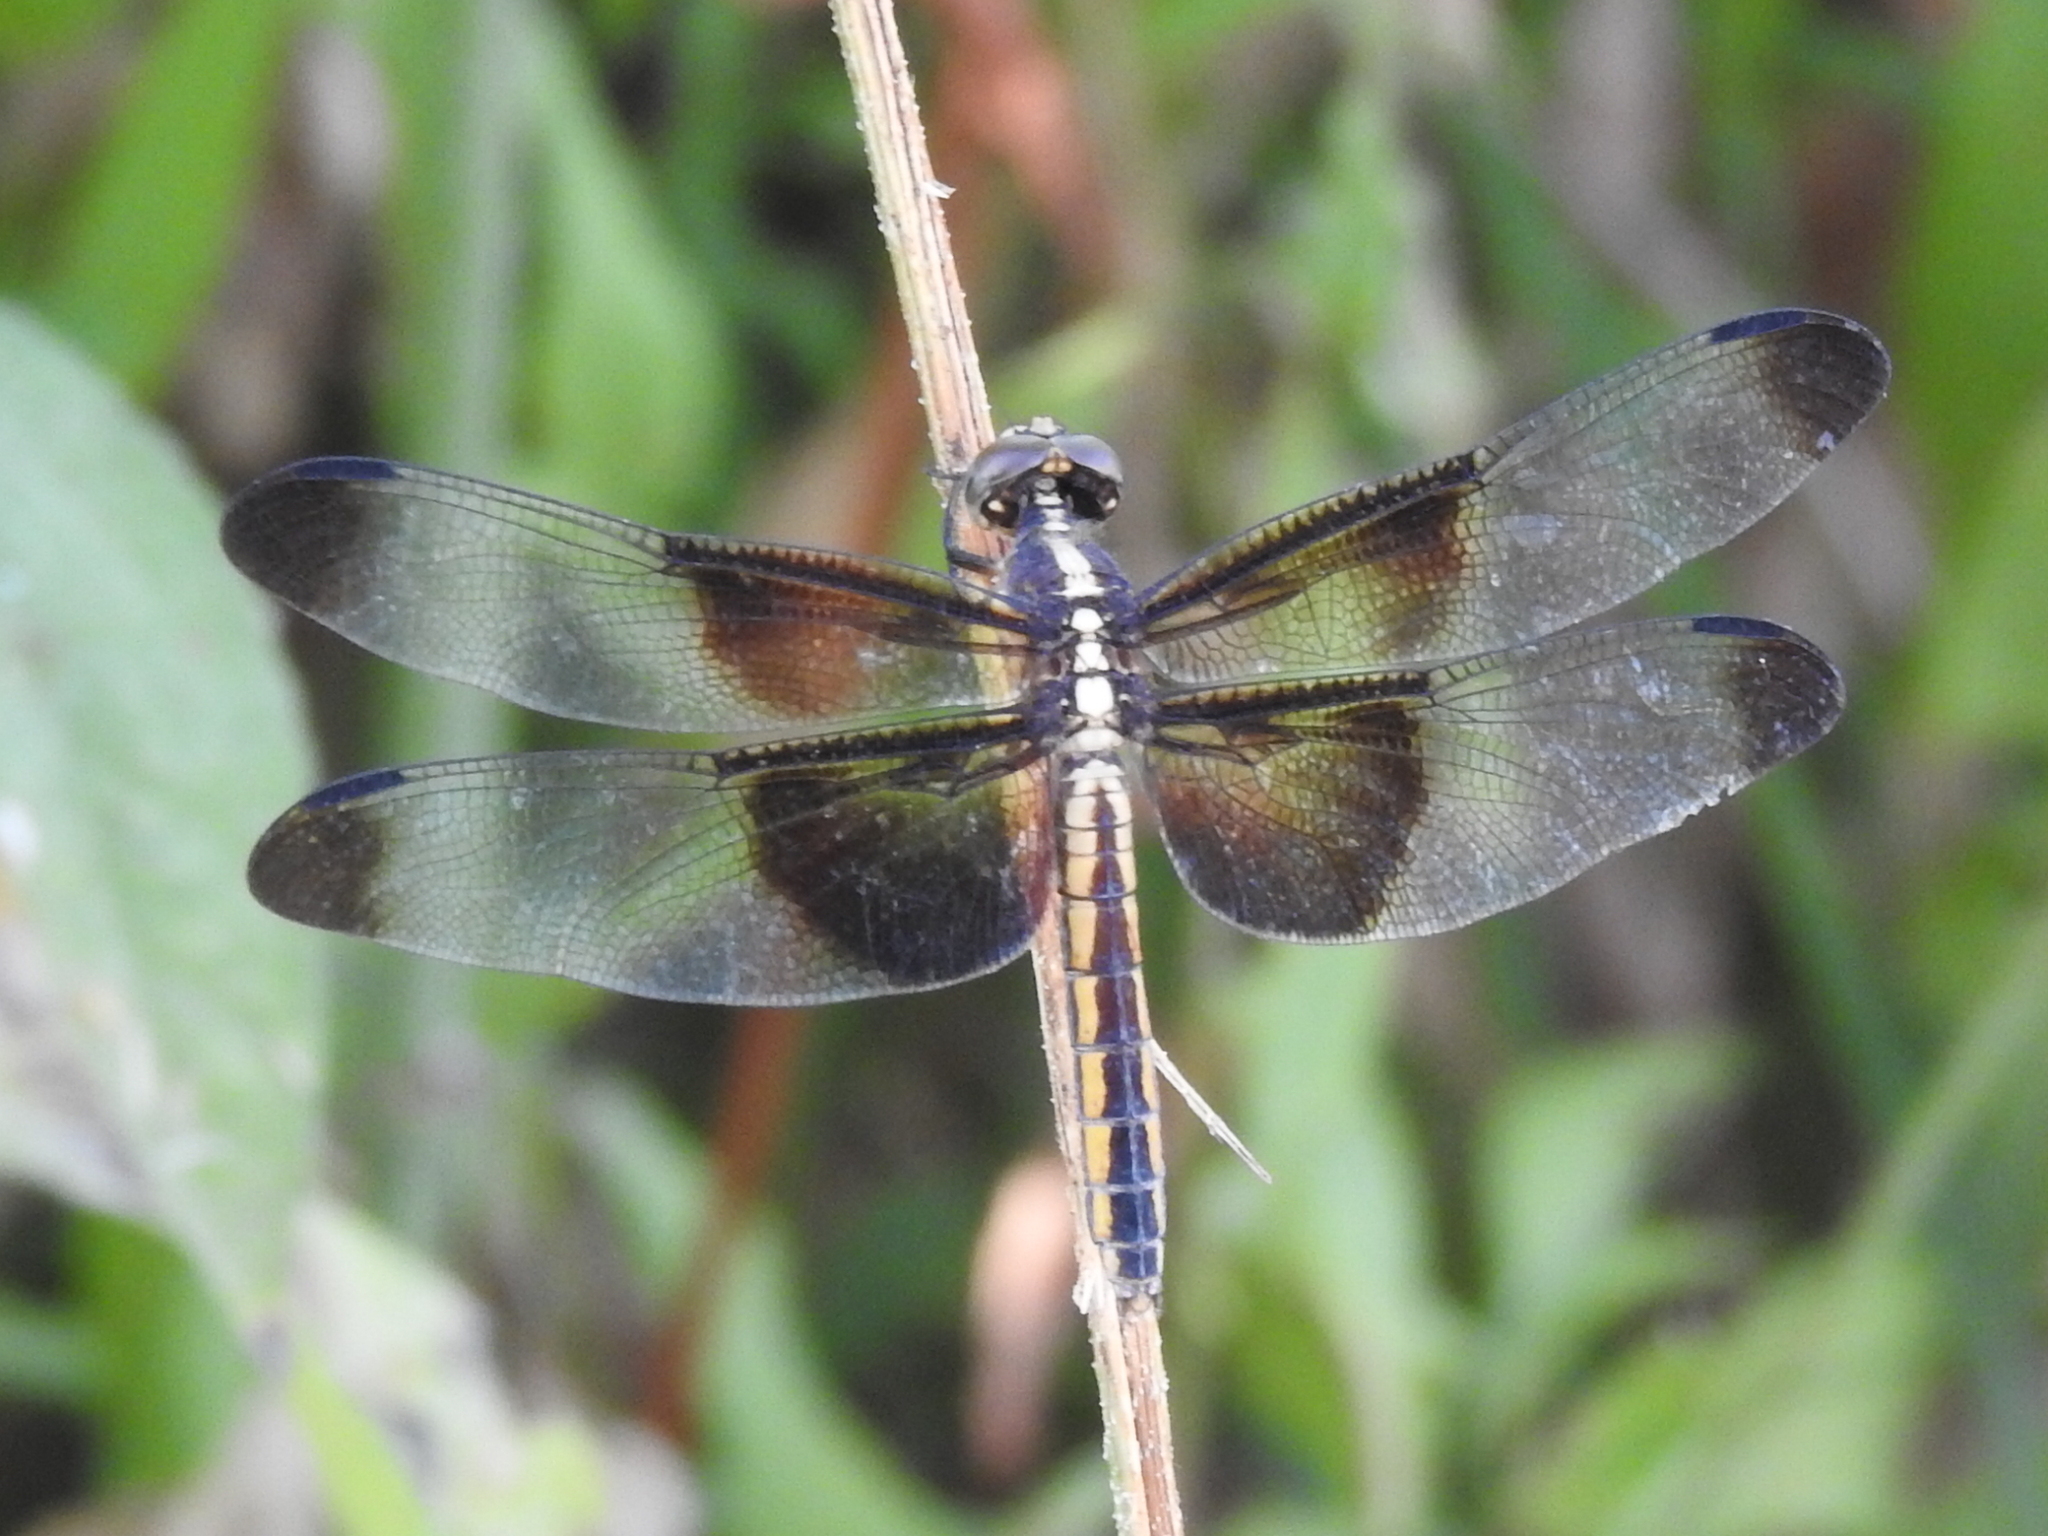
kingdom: Animalia
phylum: Arthropoda
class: Insecta
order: Odonata
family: Libellulidae
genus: Libellula
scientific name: Libellula luctuosa
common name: Widow skimmer
